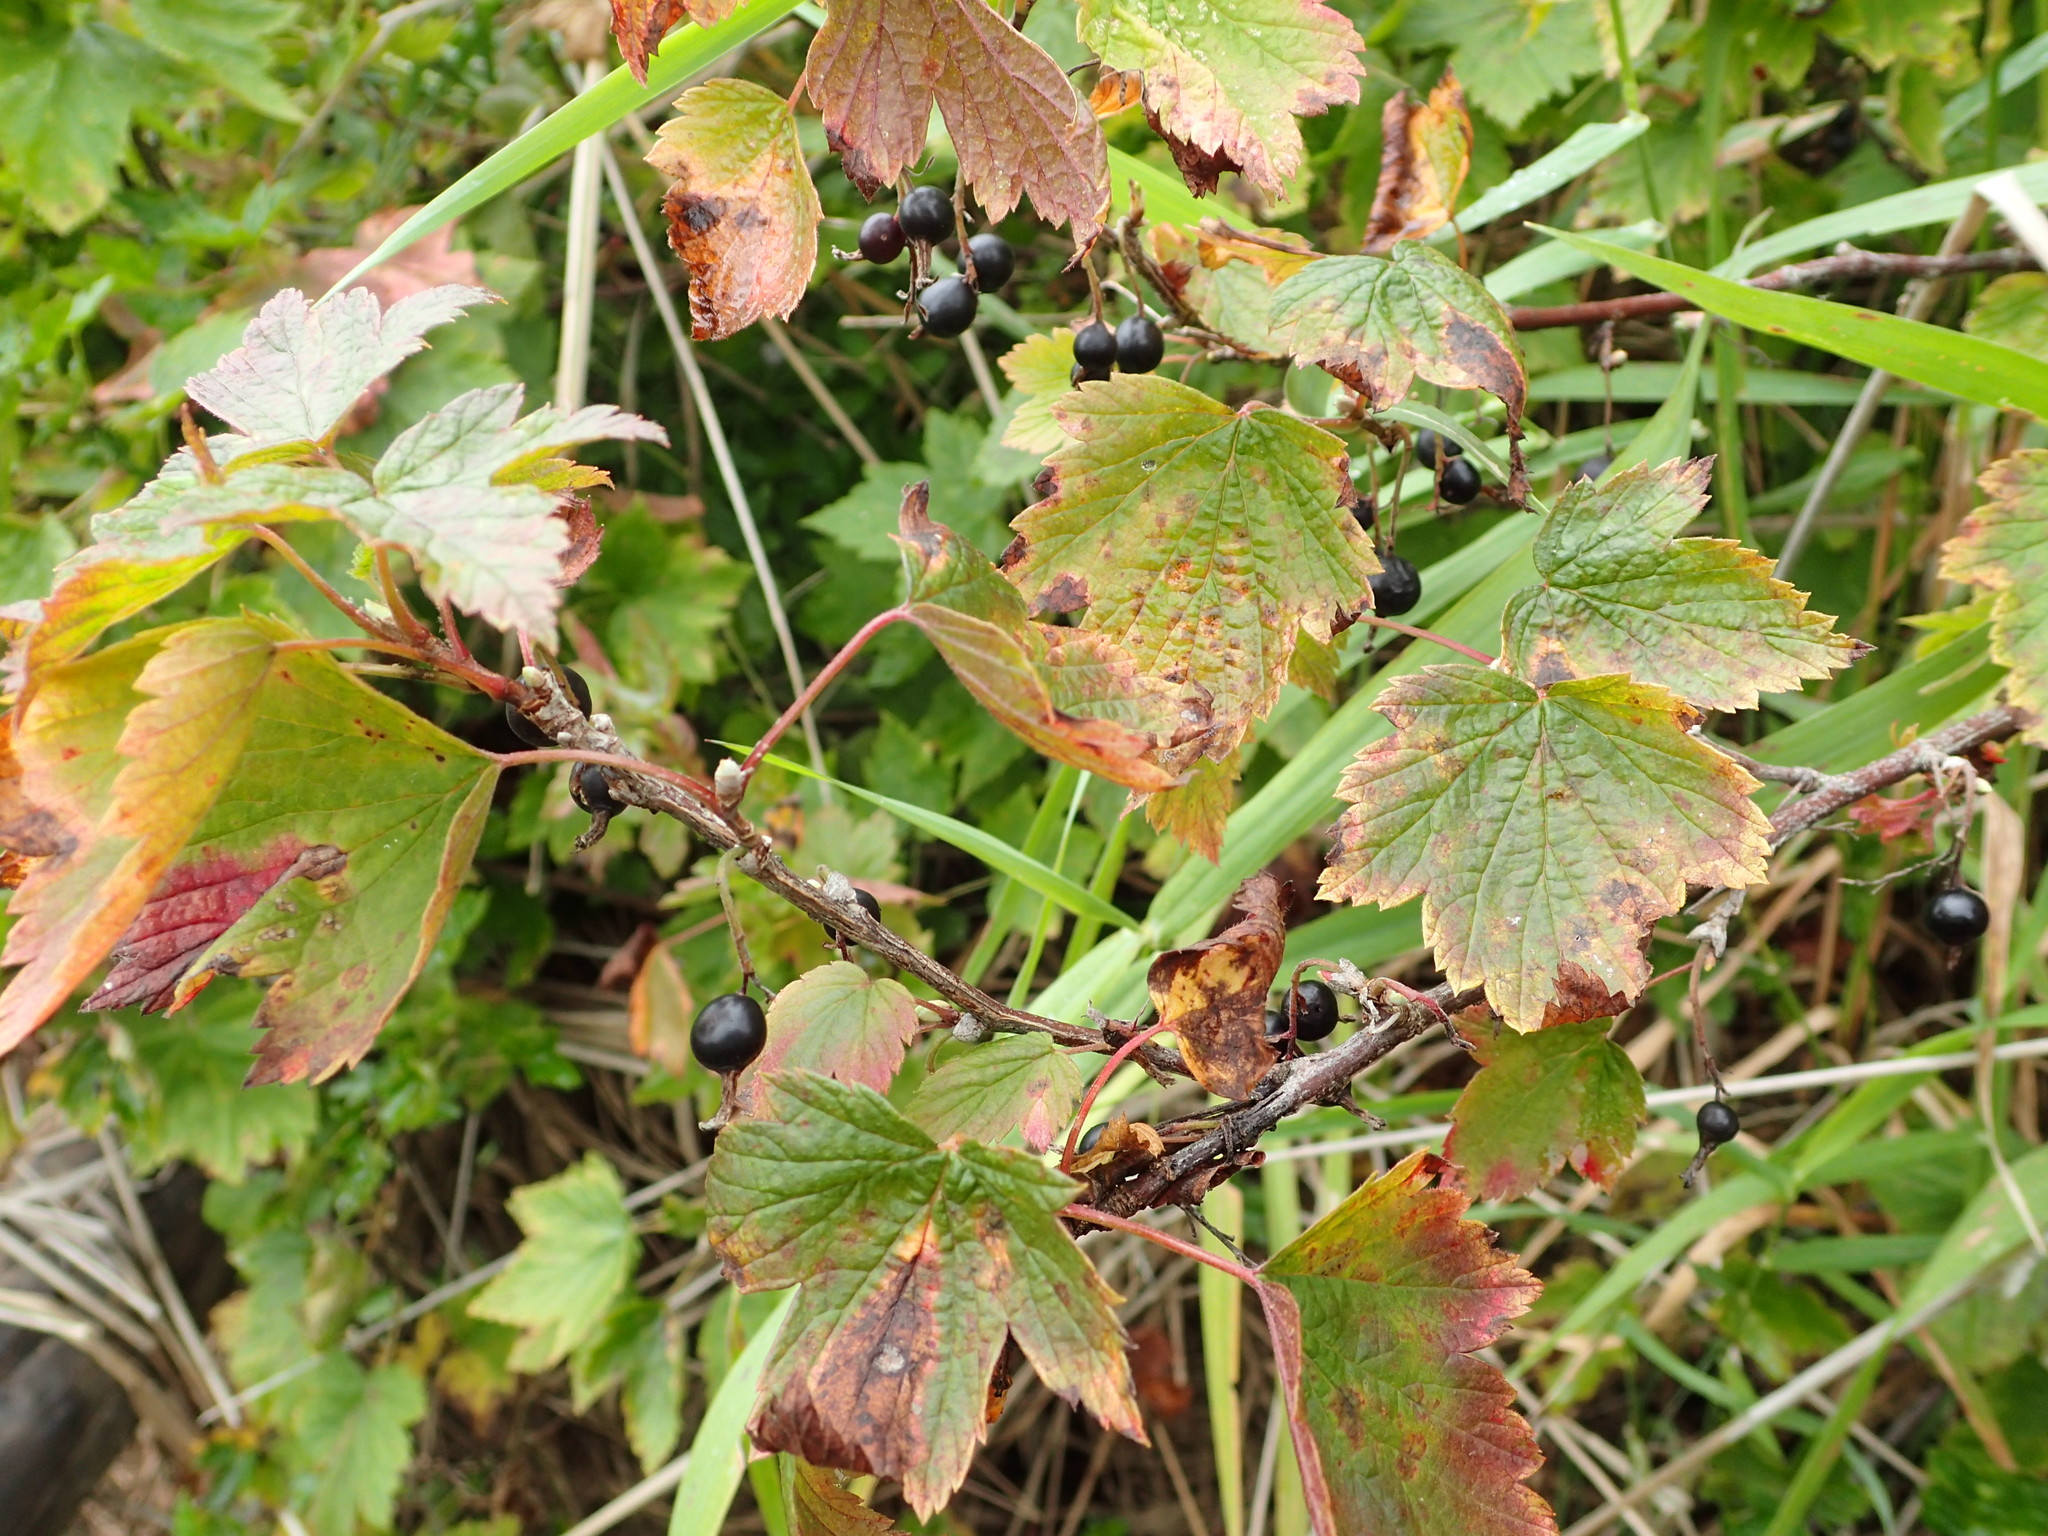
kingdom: Plantae
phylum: Tracheophyta
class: Magnoliopsida
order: Saxifragales
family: Grossulariaceae
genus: Ribes
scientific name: Ribes americanum
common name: American black currant
